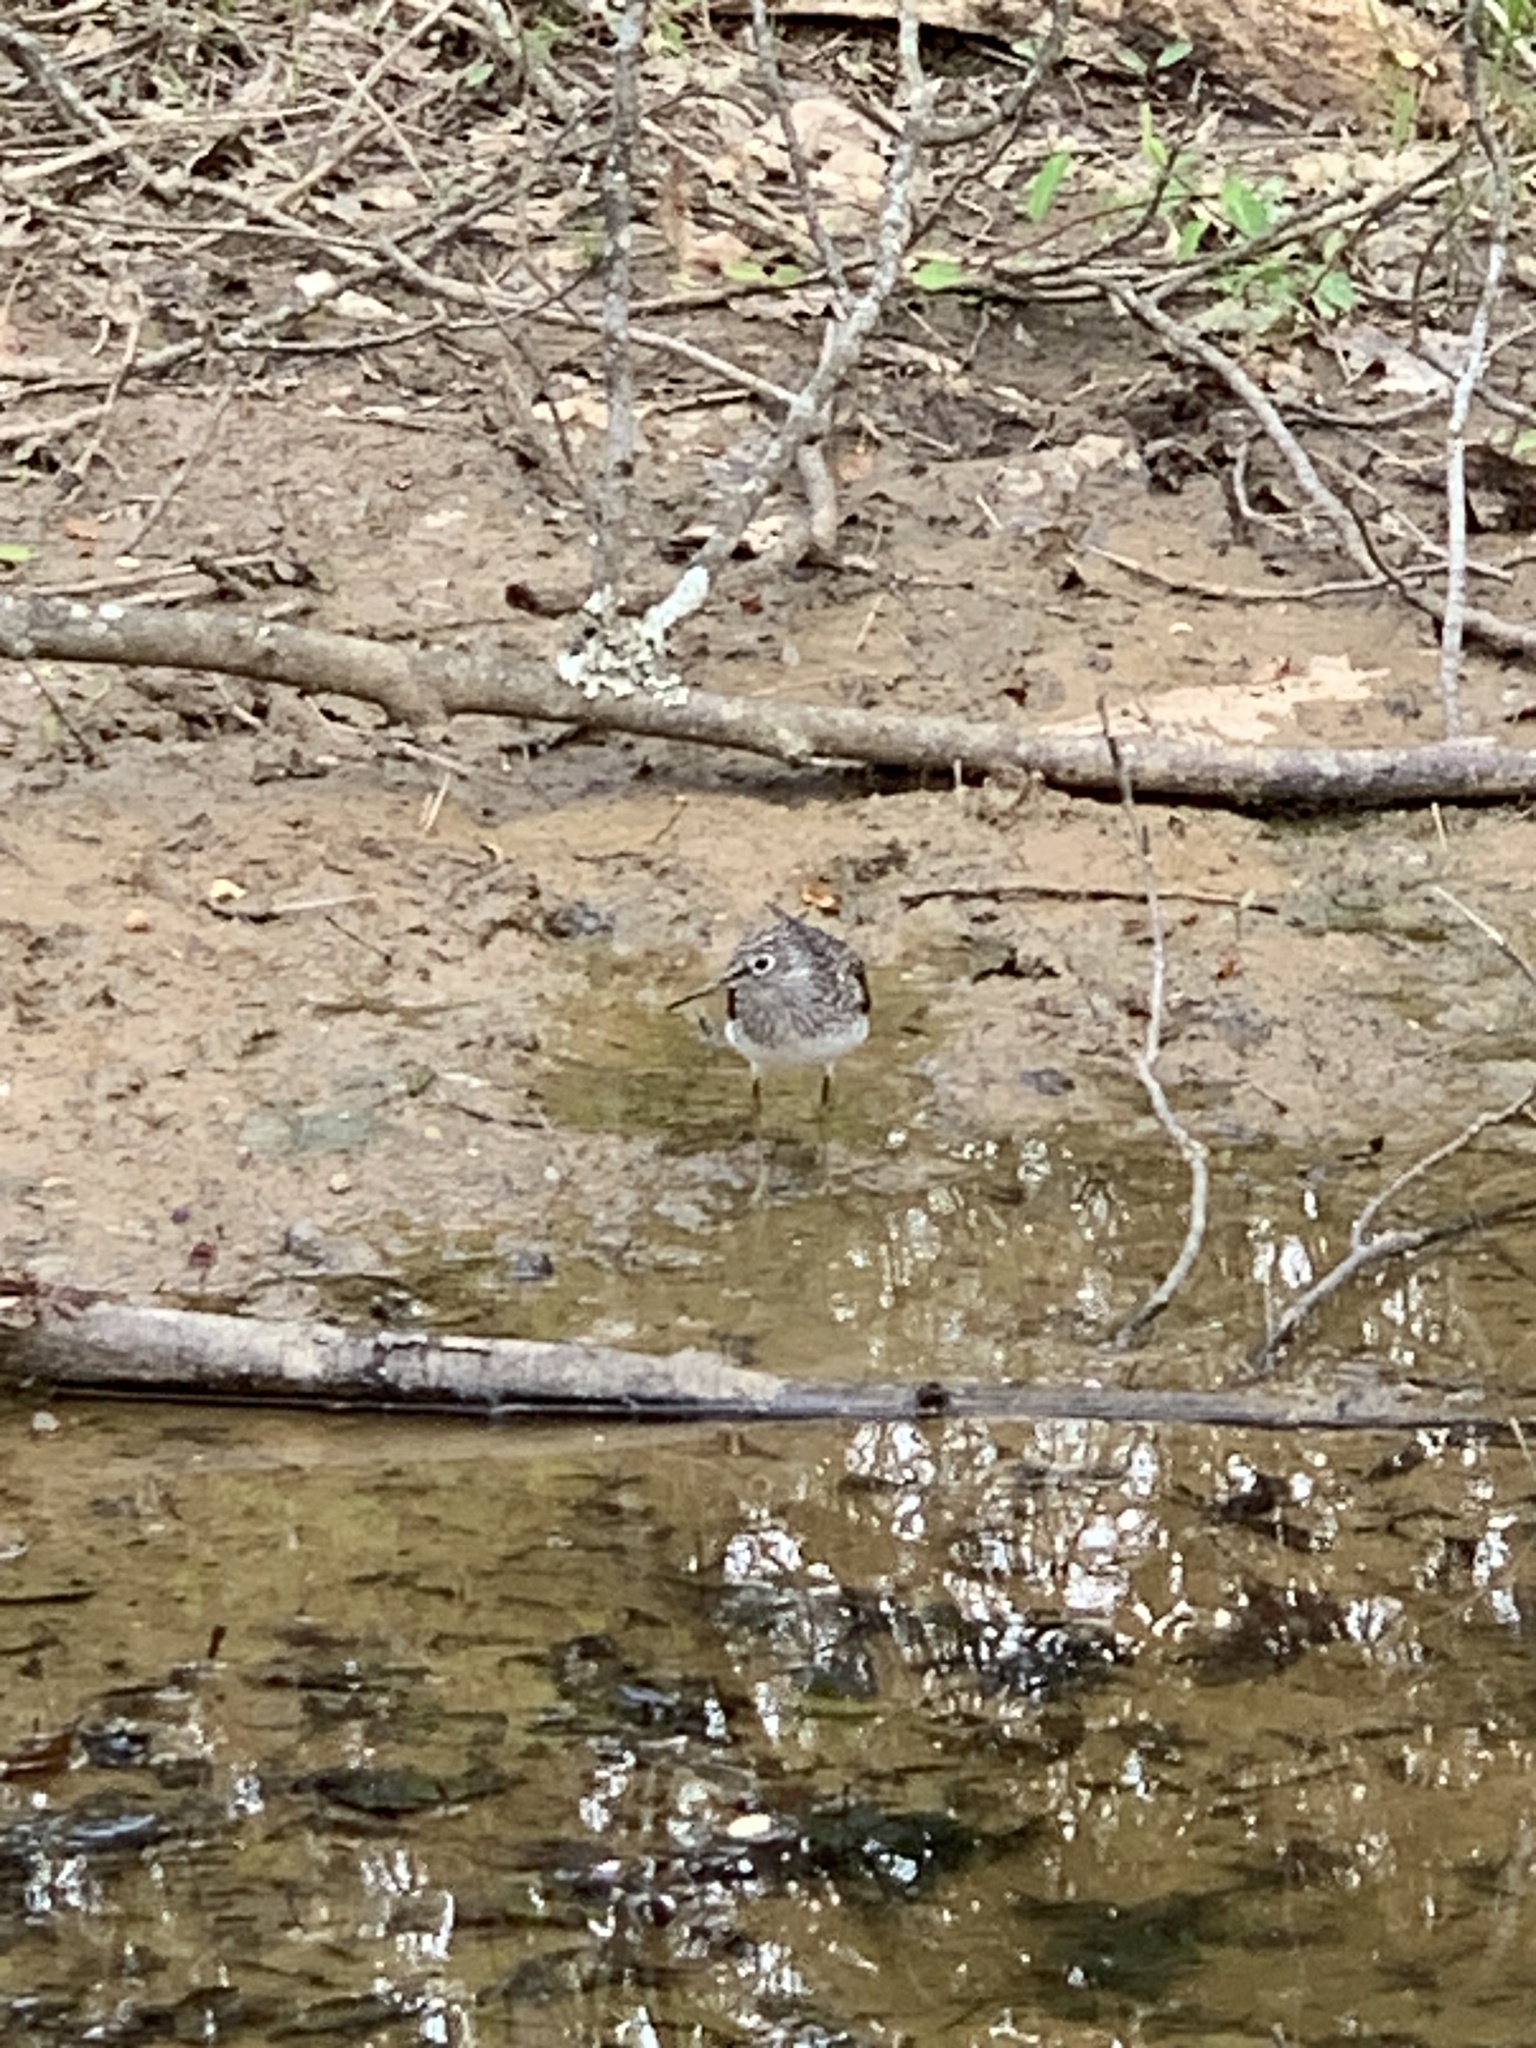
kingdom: Animalia
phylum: Chordata
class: Aves
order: Charadriiformes
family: Scolopacidae
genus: Tringa
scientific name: Tringa solitaria
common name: Solitary sandpiper
